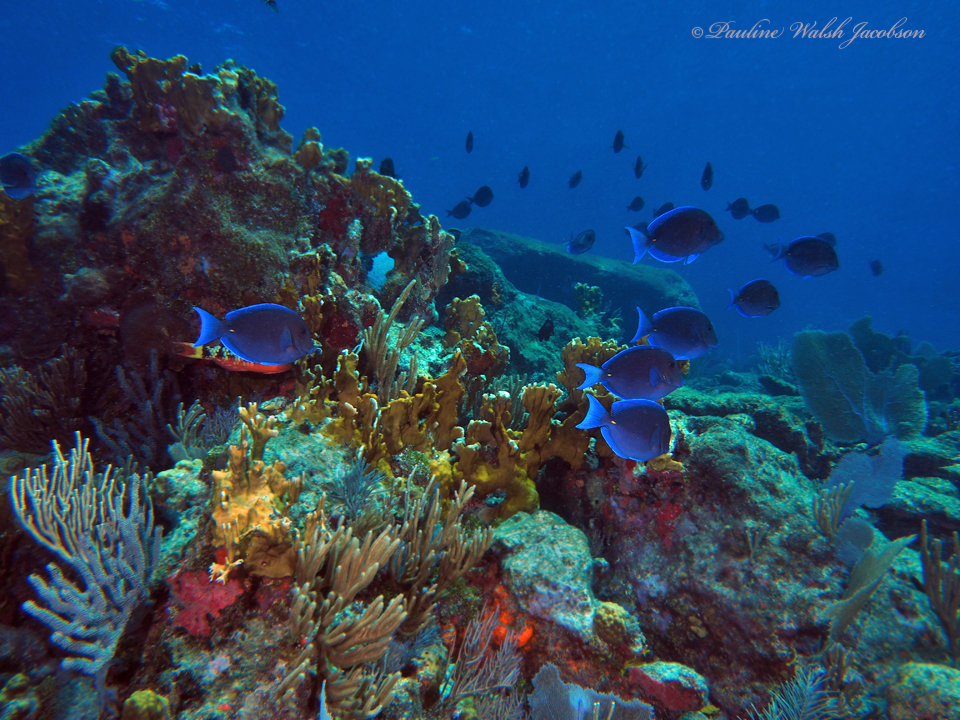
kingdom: Animalia
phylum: Chordata
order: Perciformes
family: Acanthuridae
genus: Acanthurus
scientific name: Acanthurus coeruleus
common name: Blue tang
